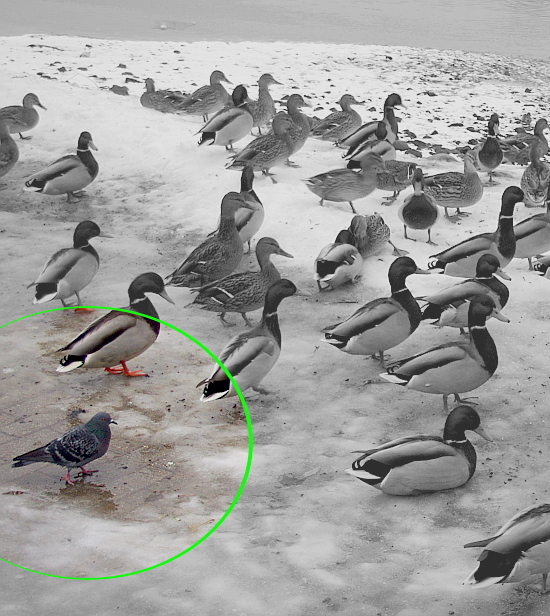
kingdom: Animalia
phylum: Chordata
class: Aves
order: Columbiformes
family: Columbidae
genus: Columba
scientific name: Columba livia
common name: Rock pigeon
